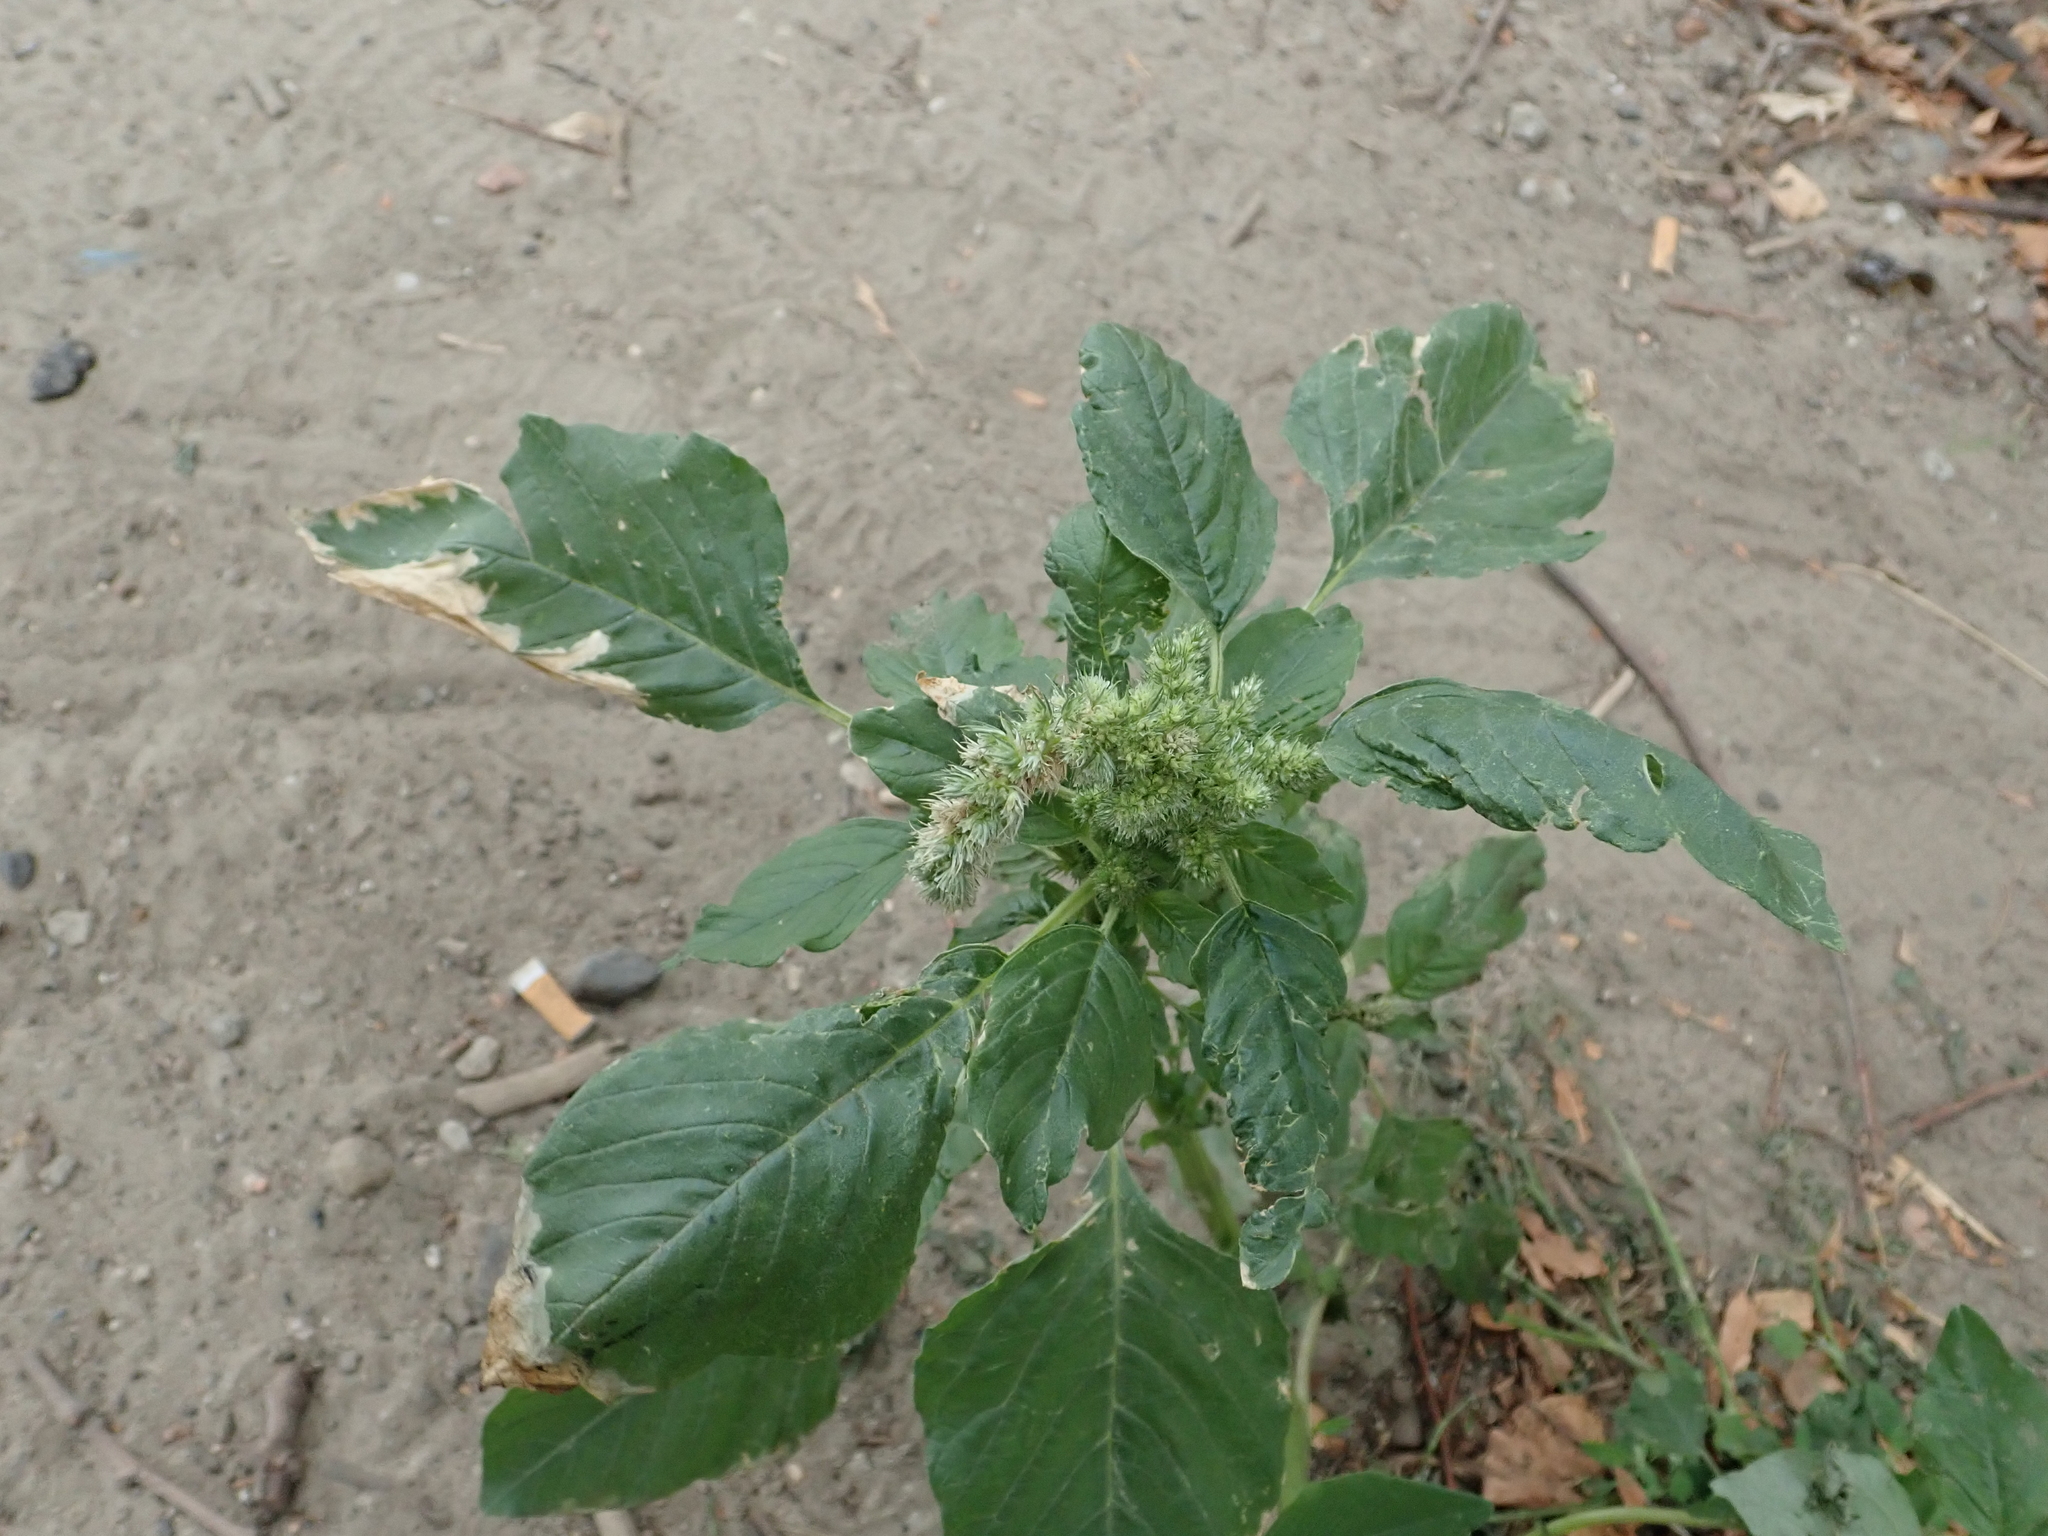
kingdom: Plantae
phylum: Tracheophyta
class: Magnoliopsida
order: Caryophyllales
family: Amaranthaceae
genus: Amaranthus
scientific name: Amaranthus retroflexus
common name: Redroot amaranth
